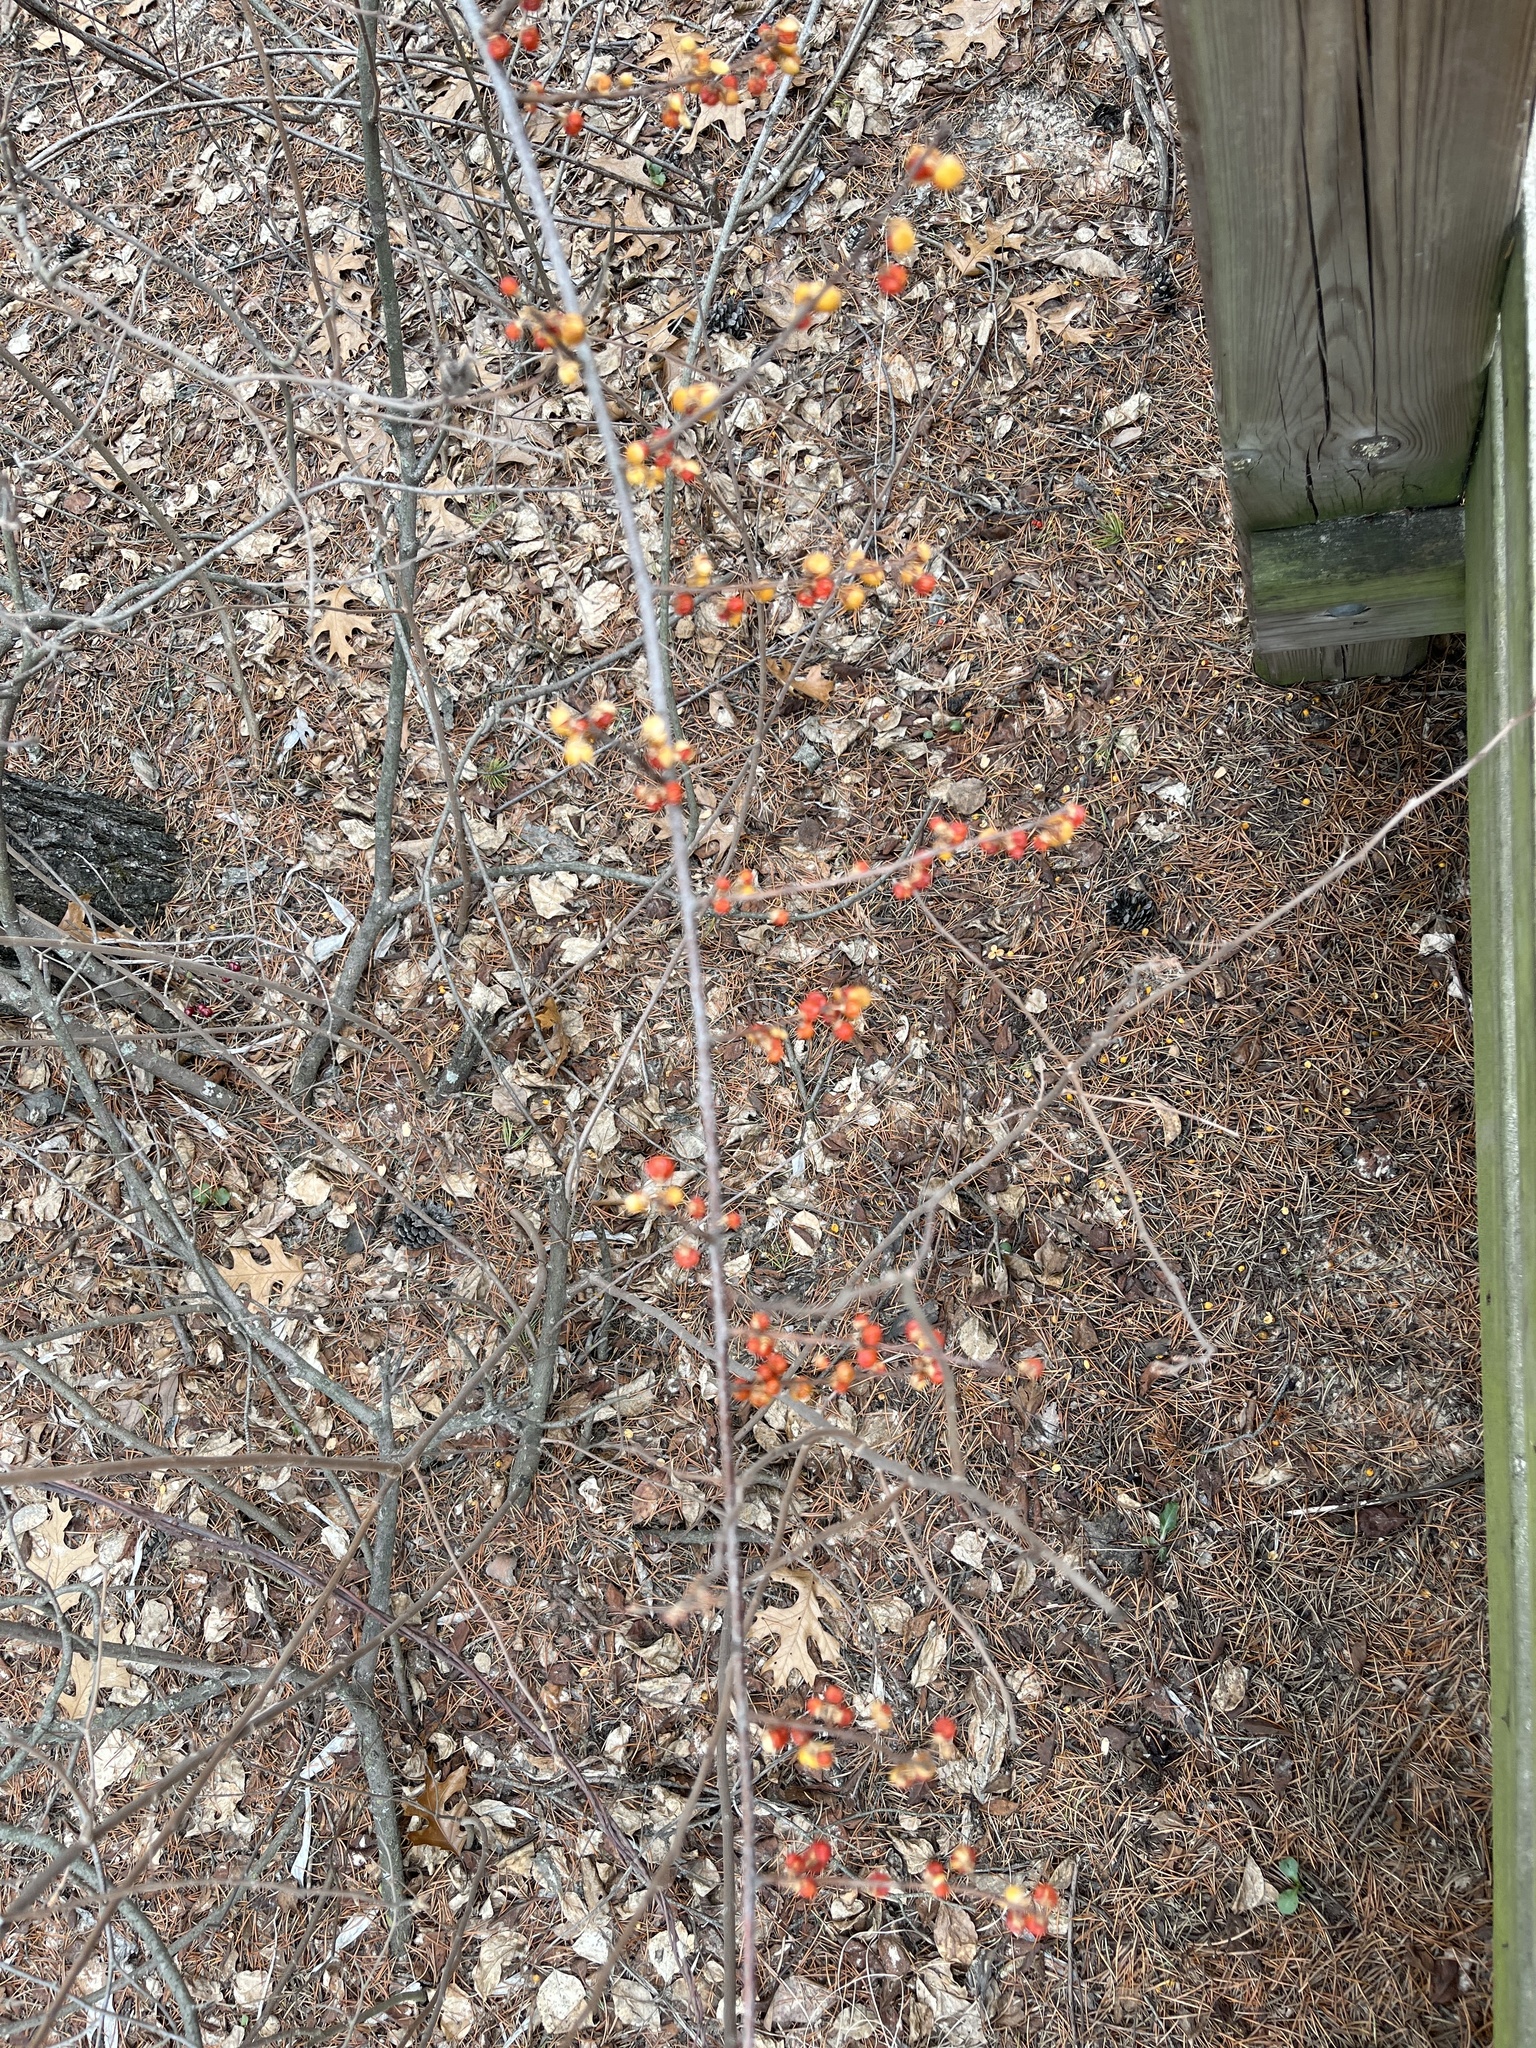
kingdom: Plantae
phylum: Tracheophyta
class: Magnoliopsida
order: Celastrales
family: Celastraceae
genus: Celastrus
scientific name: Celastrus orbiculatus
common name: Oriental bittersweet
